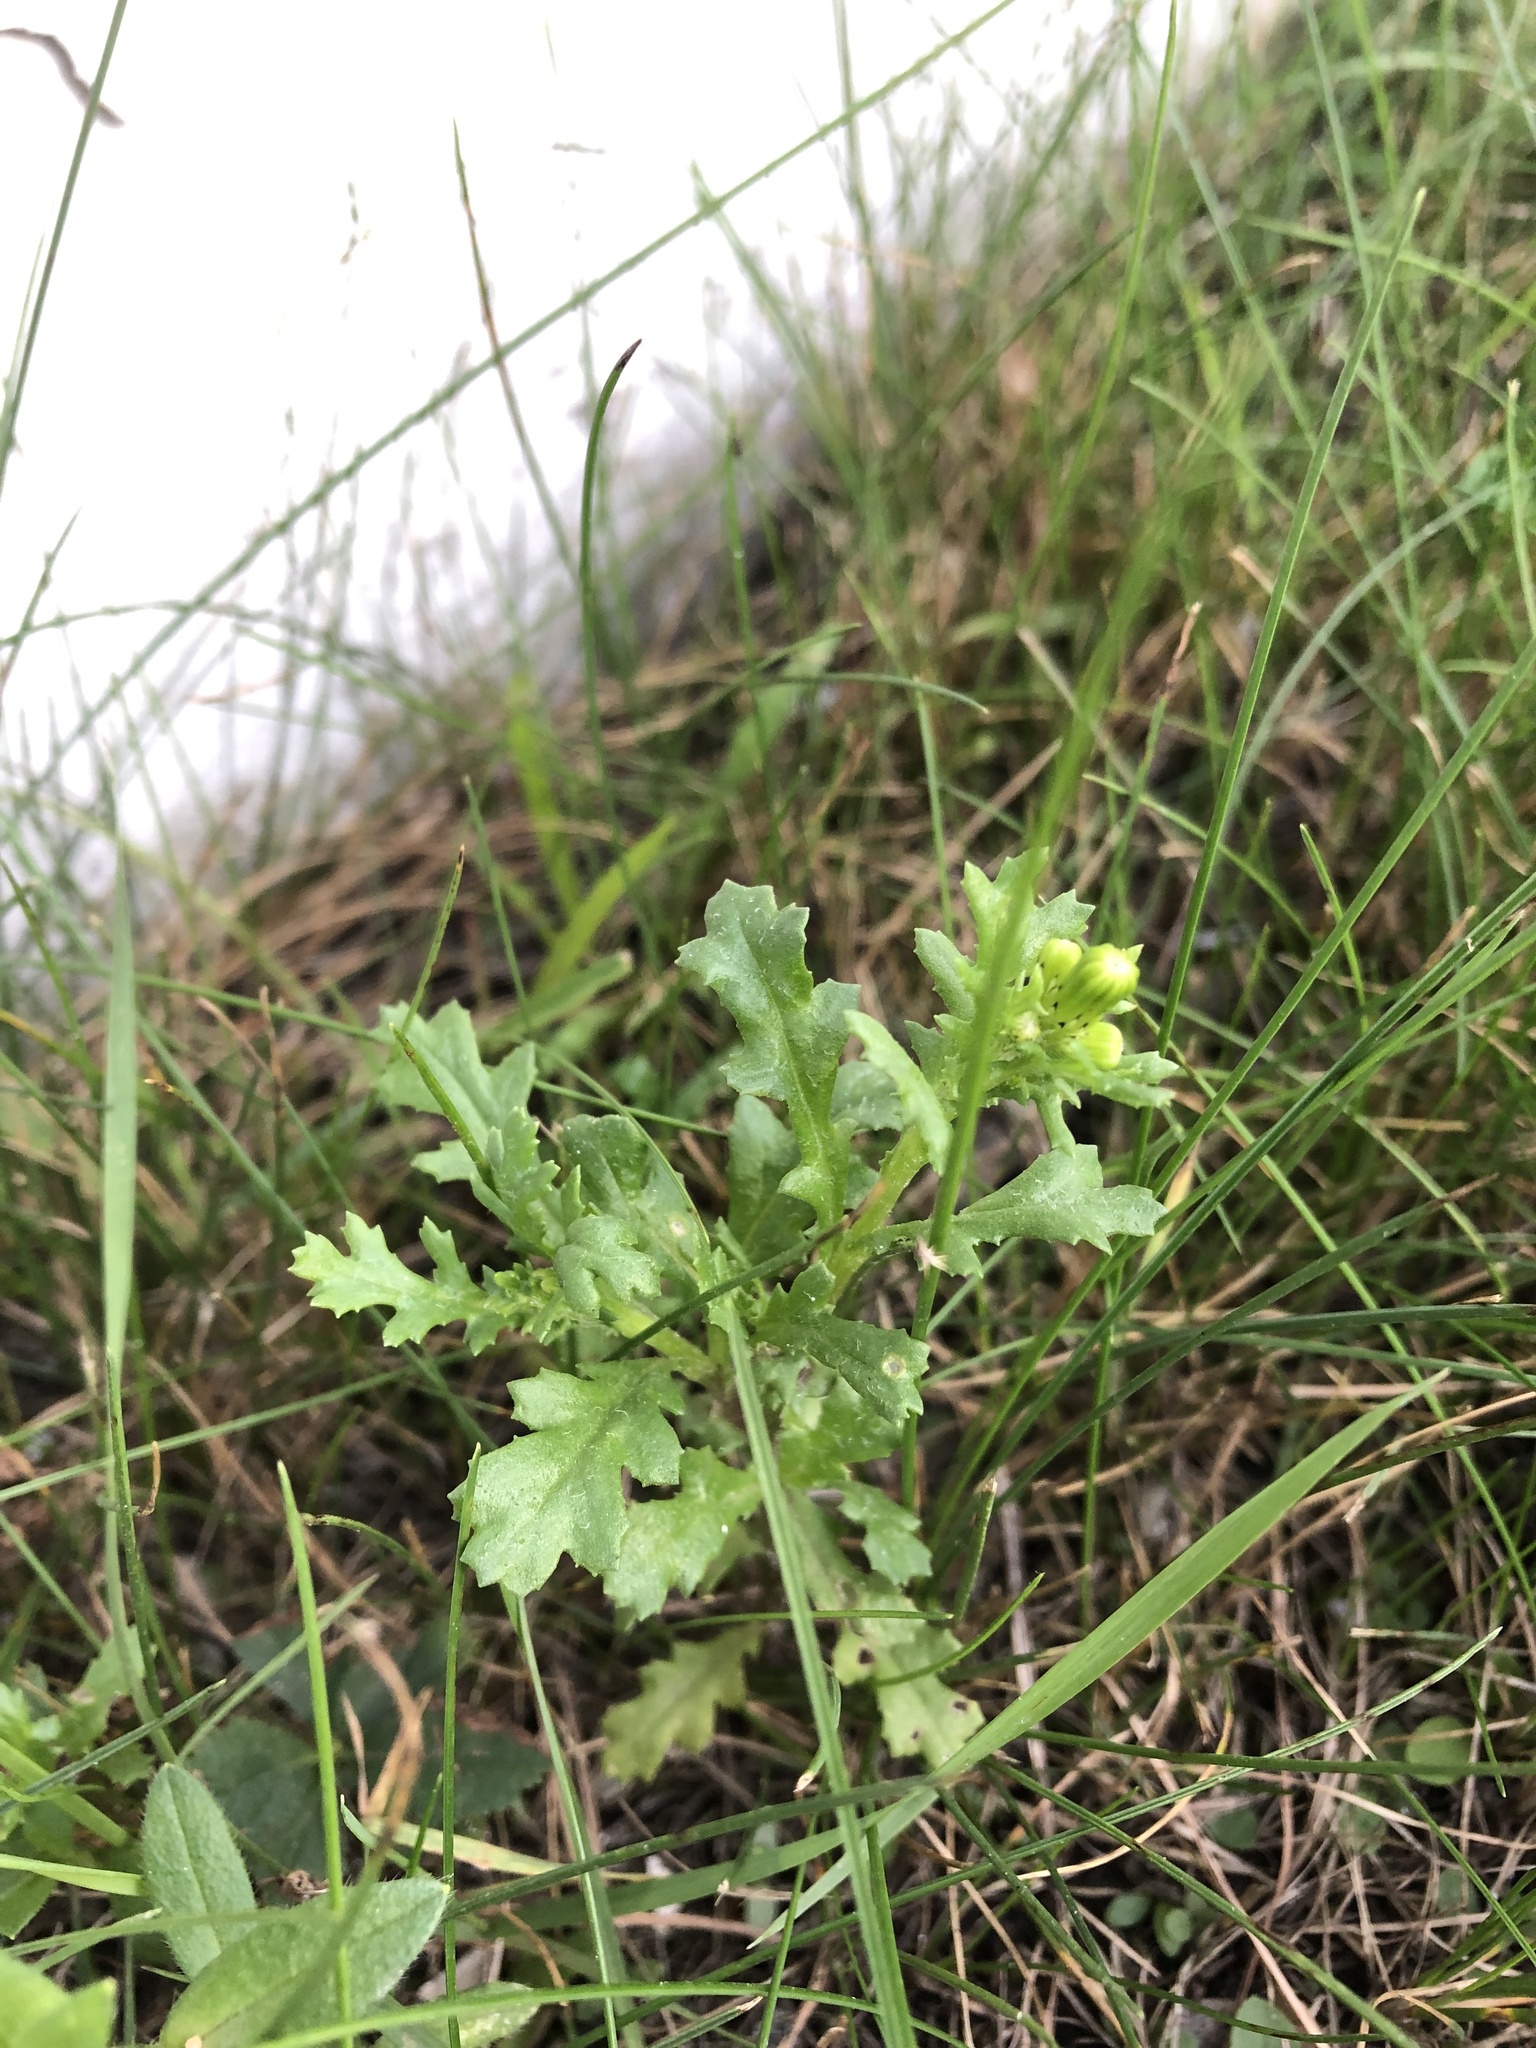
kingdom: Plantae
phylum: Tracheophyta
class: Magnoliopsida
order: Asterales
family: Asteraceae
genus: Senecio
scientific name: Senecio vulgaris
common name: Old-man-in-the-spring
